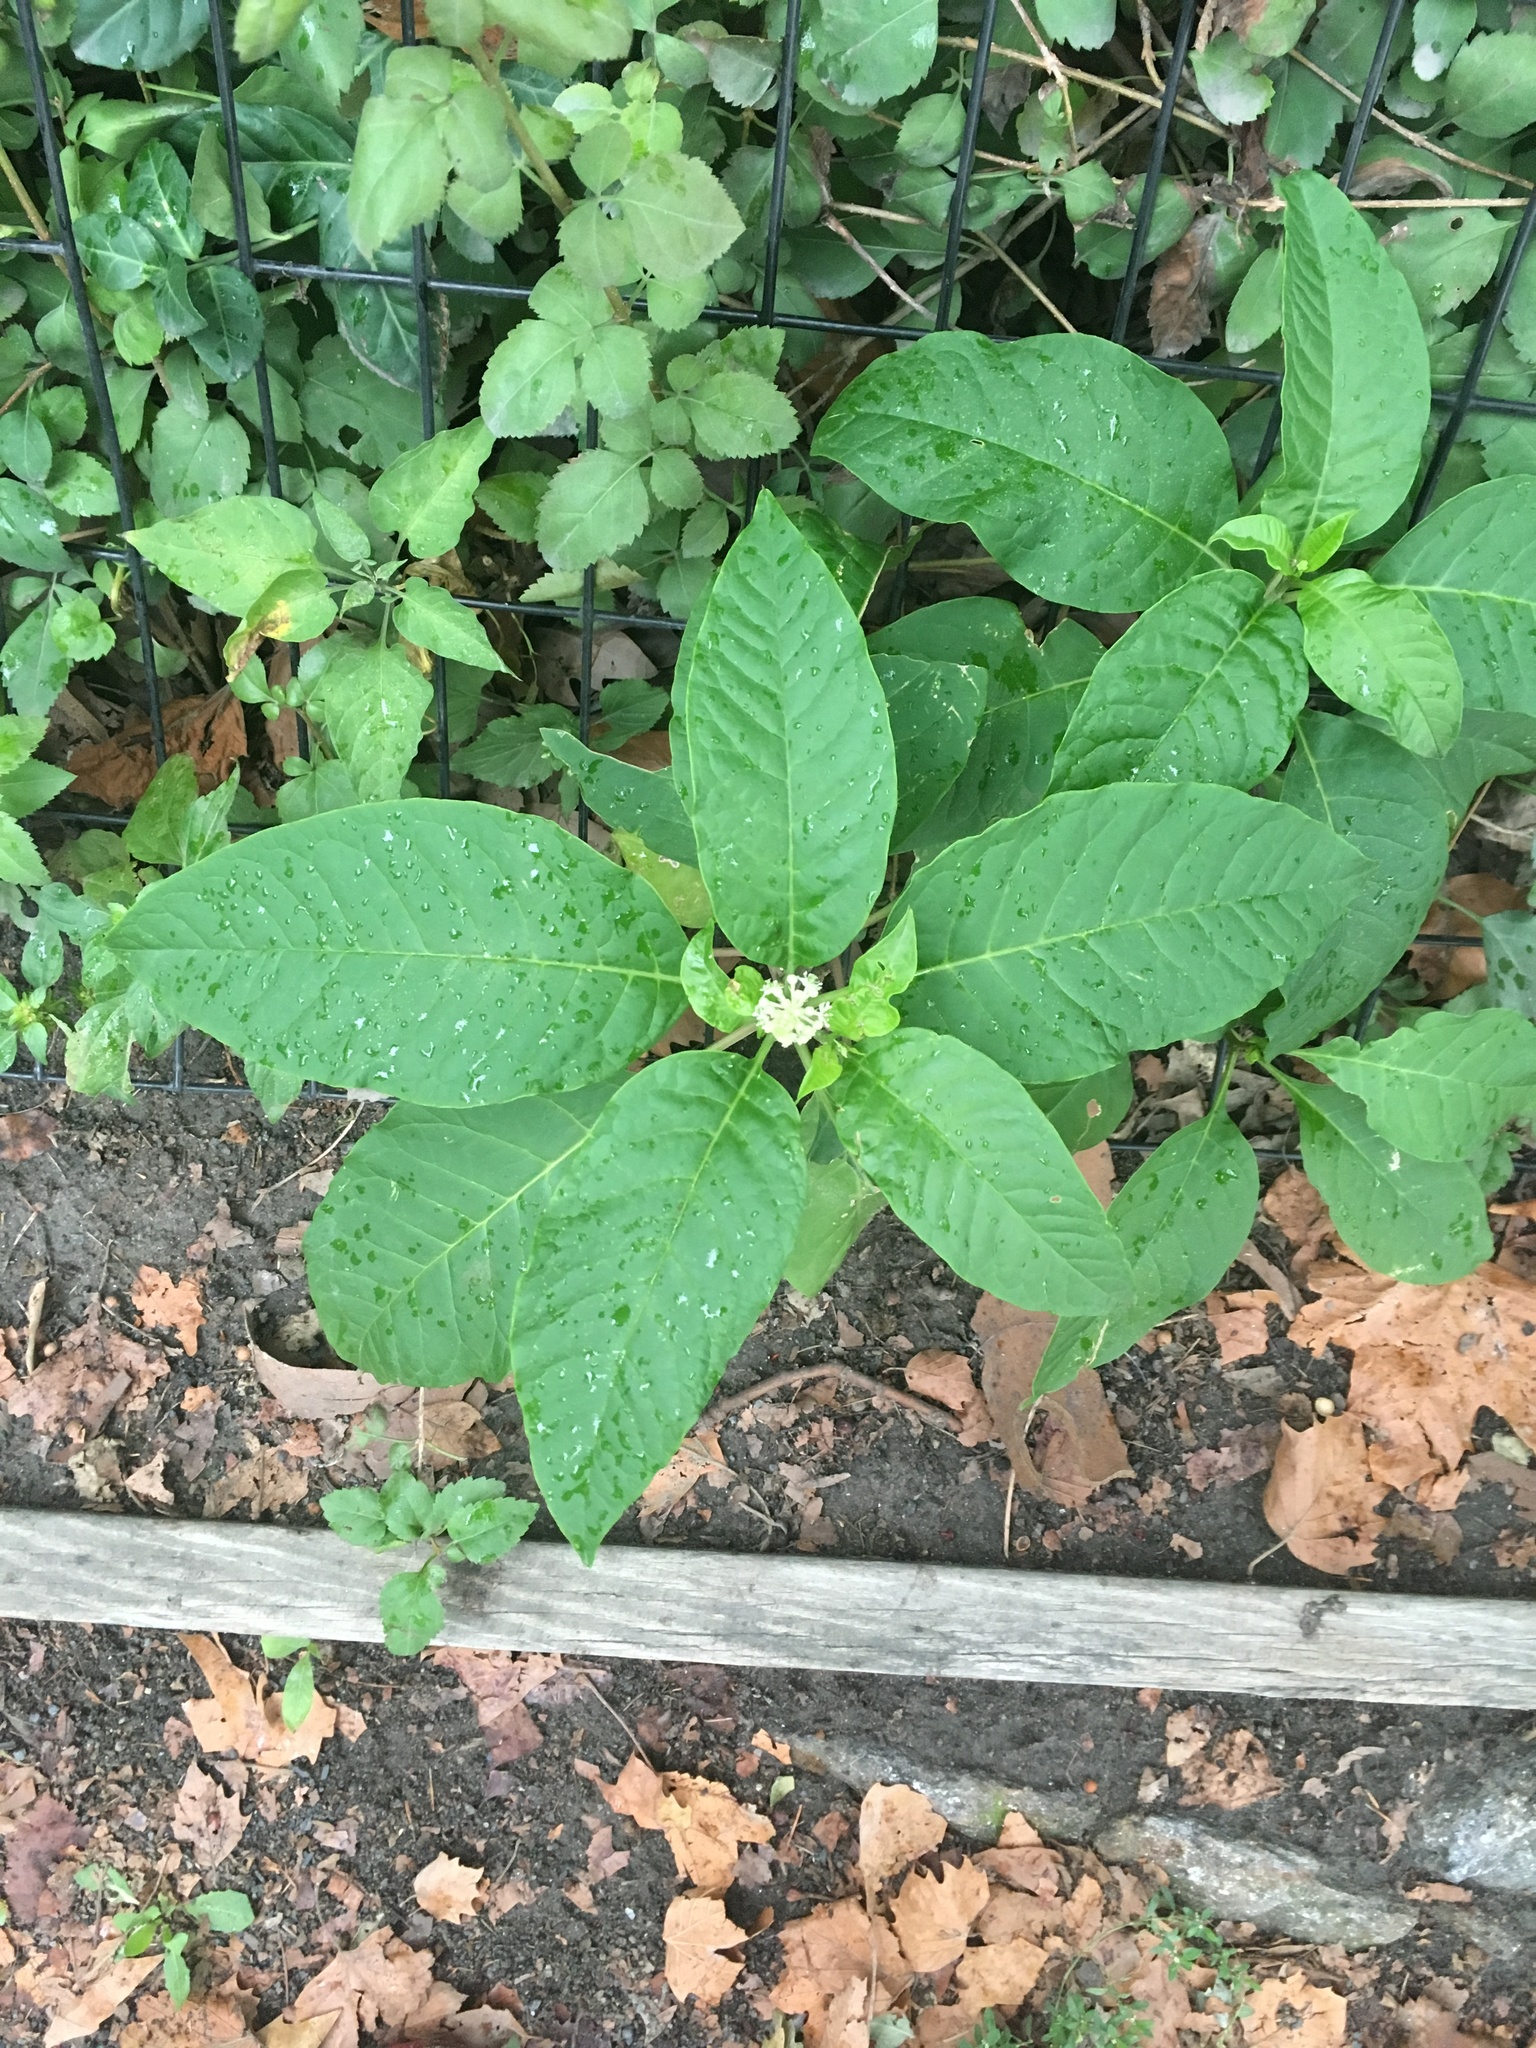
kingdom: Plantae
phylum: Tracheophyta
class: Magnoliopsida
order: Caryophyllales
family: Phytolaccaceae
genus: Phytolacca
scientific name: Phytolacca americana
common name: American pokeweed
